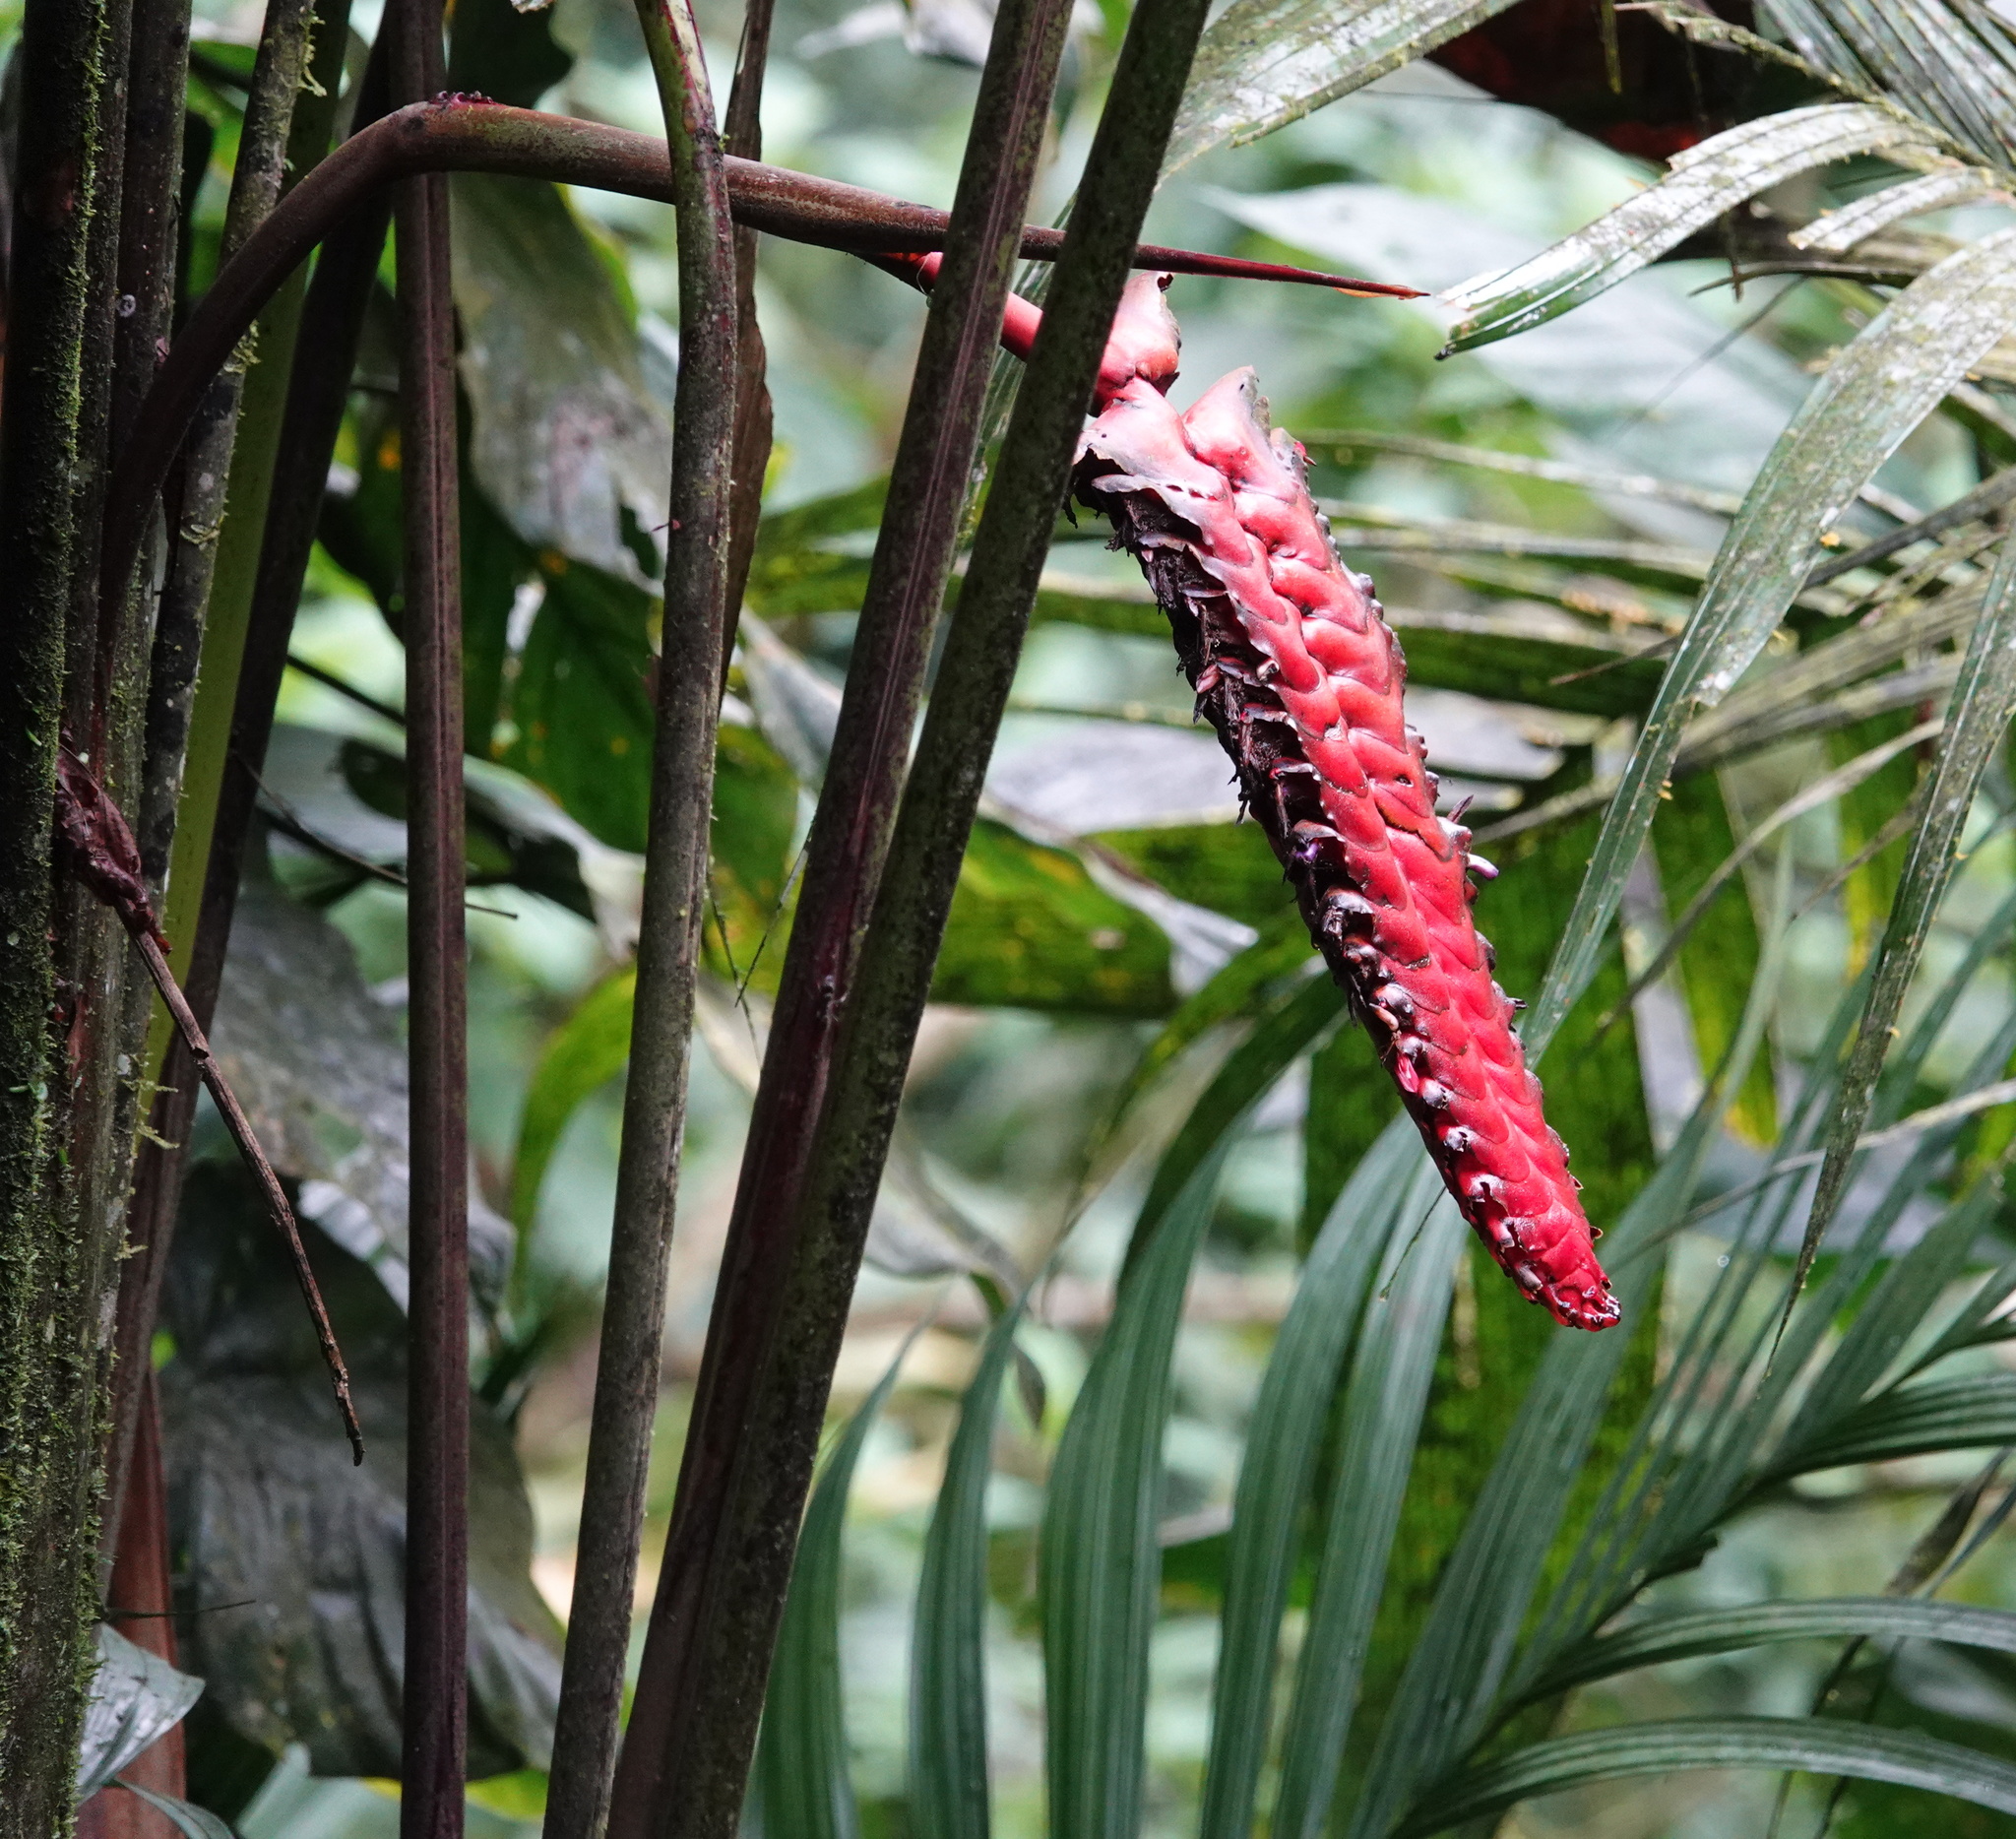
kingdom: Plantae
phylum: Tracheophyta
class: Liliopsida
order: Zingiberales
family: Heliconiaceae
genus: Heliconia
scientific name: Heliconia mariae
